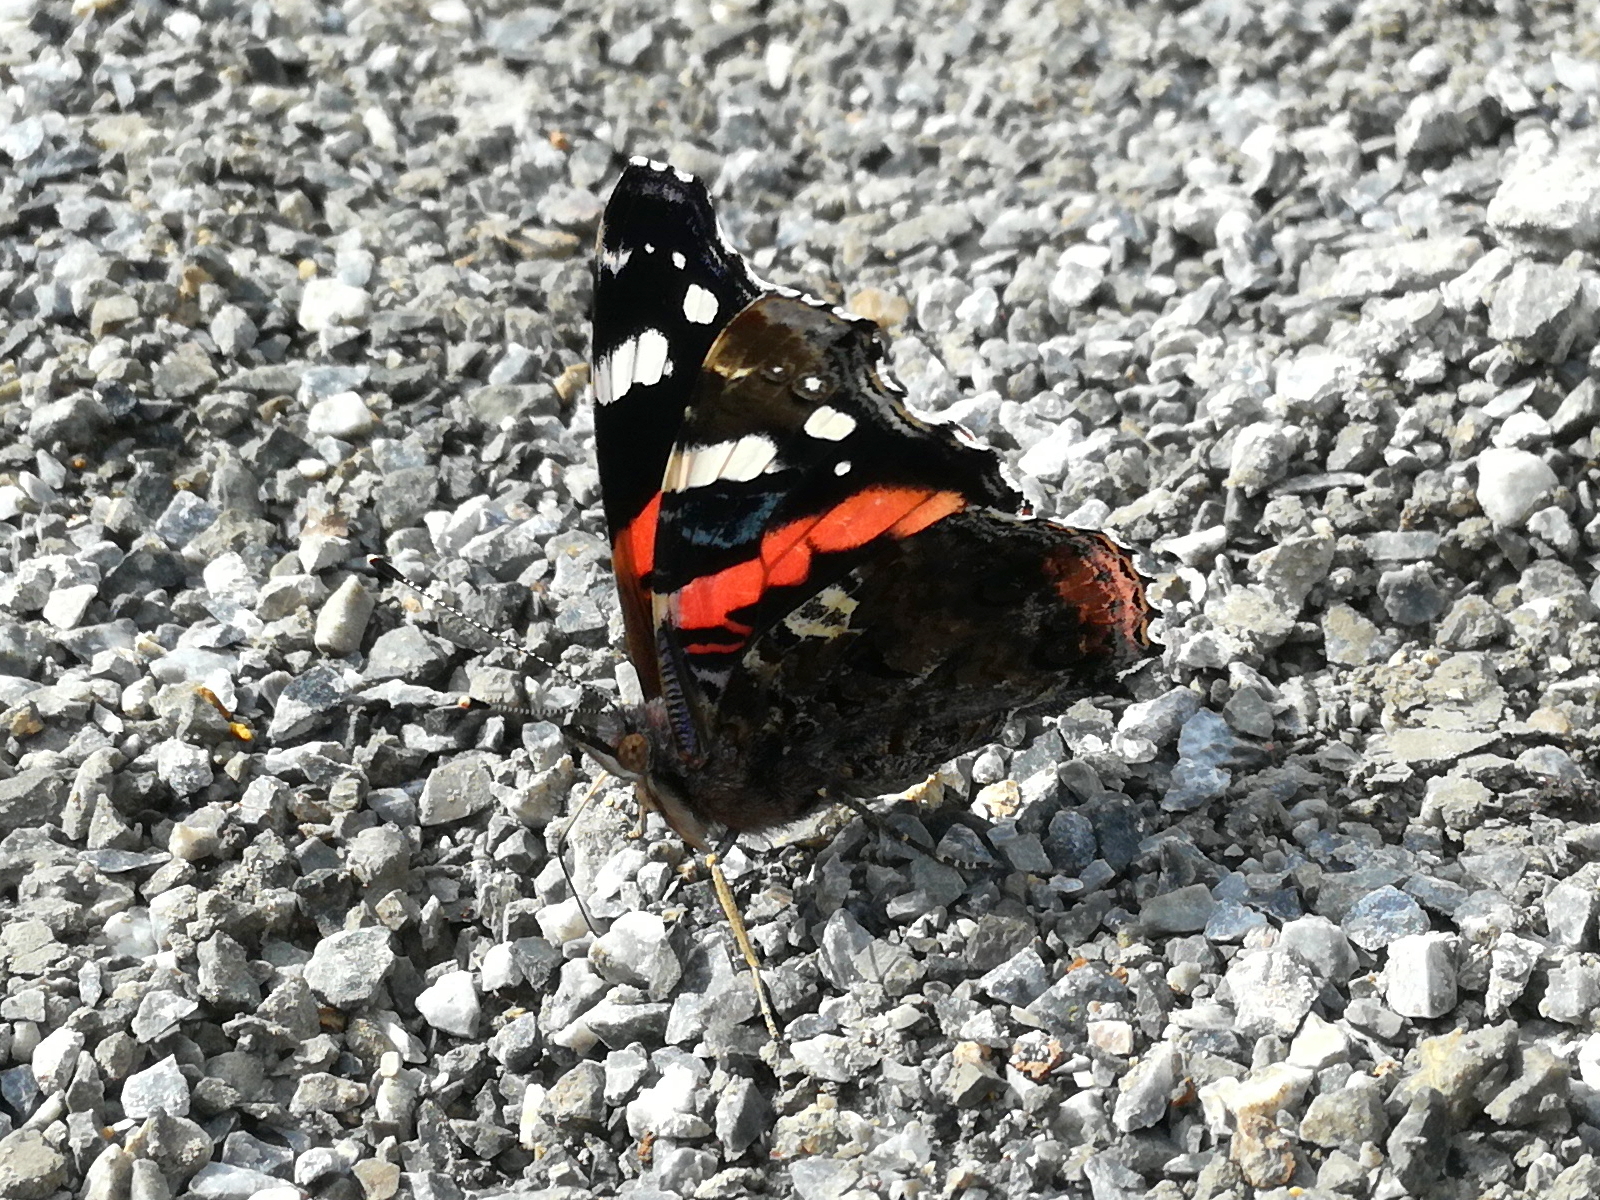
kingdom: Animalia
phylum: Arthropoda
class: Insecta
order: Lepidoptera
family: Nymphalidae
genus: Vanessa
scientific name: Vanessa atalanta
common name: Red admiral
